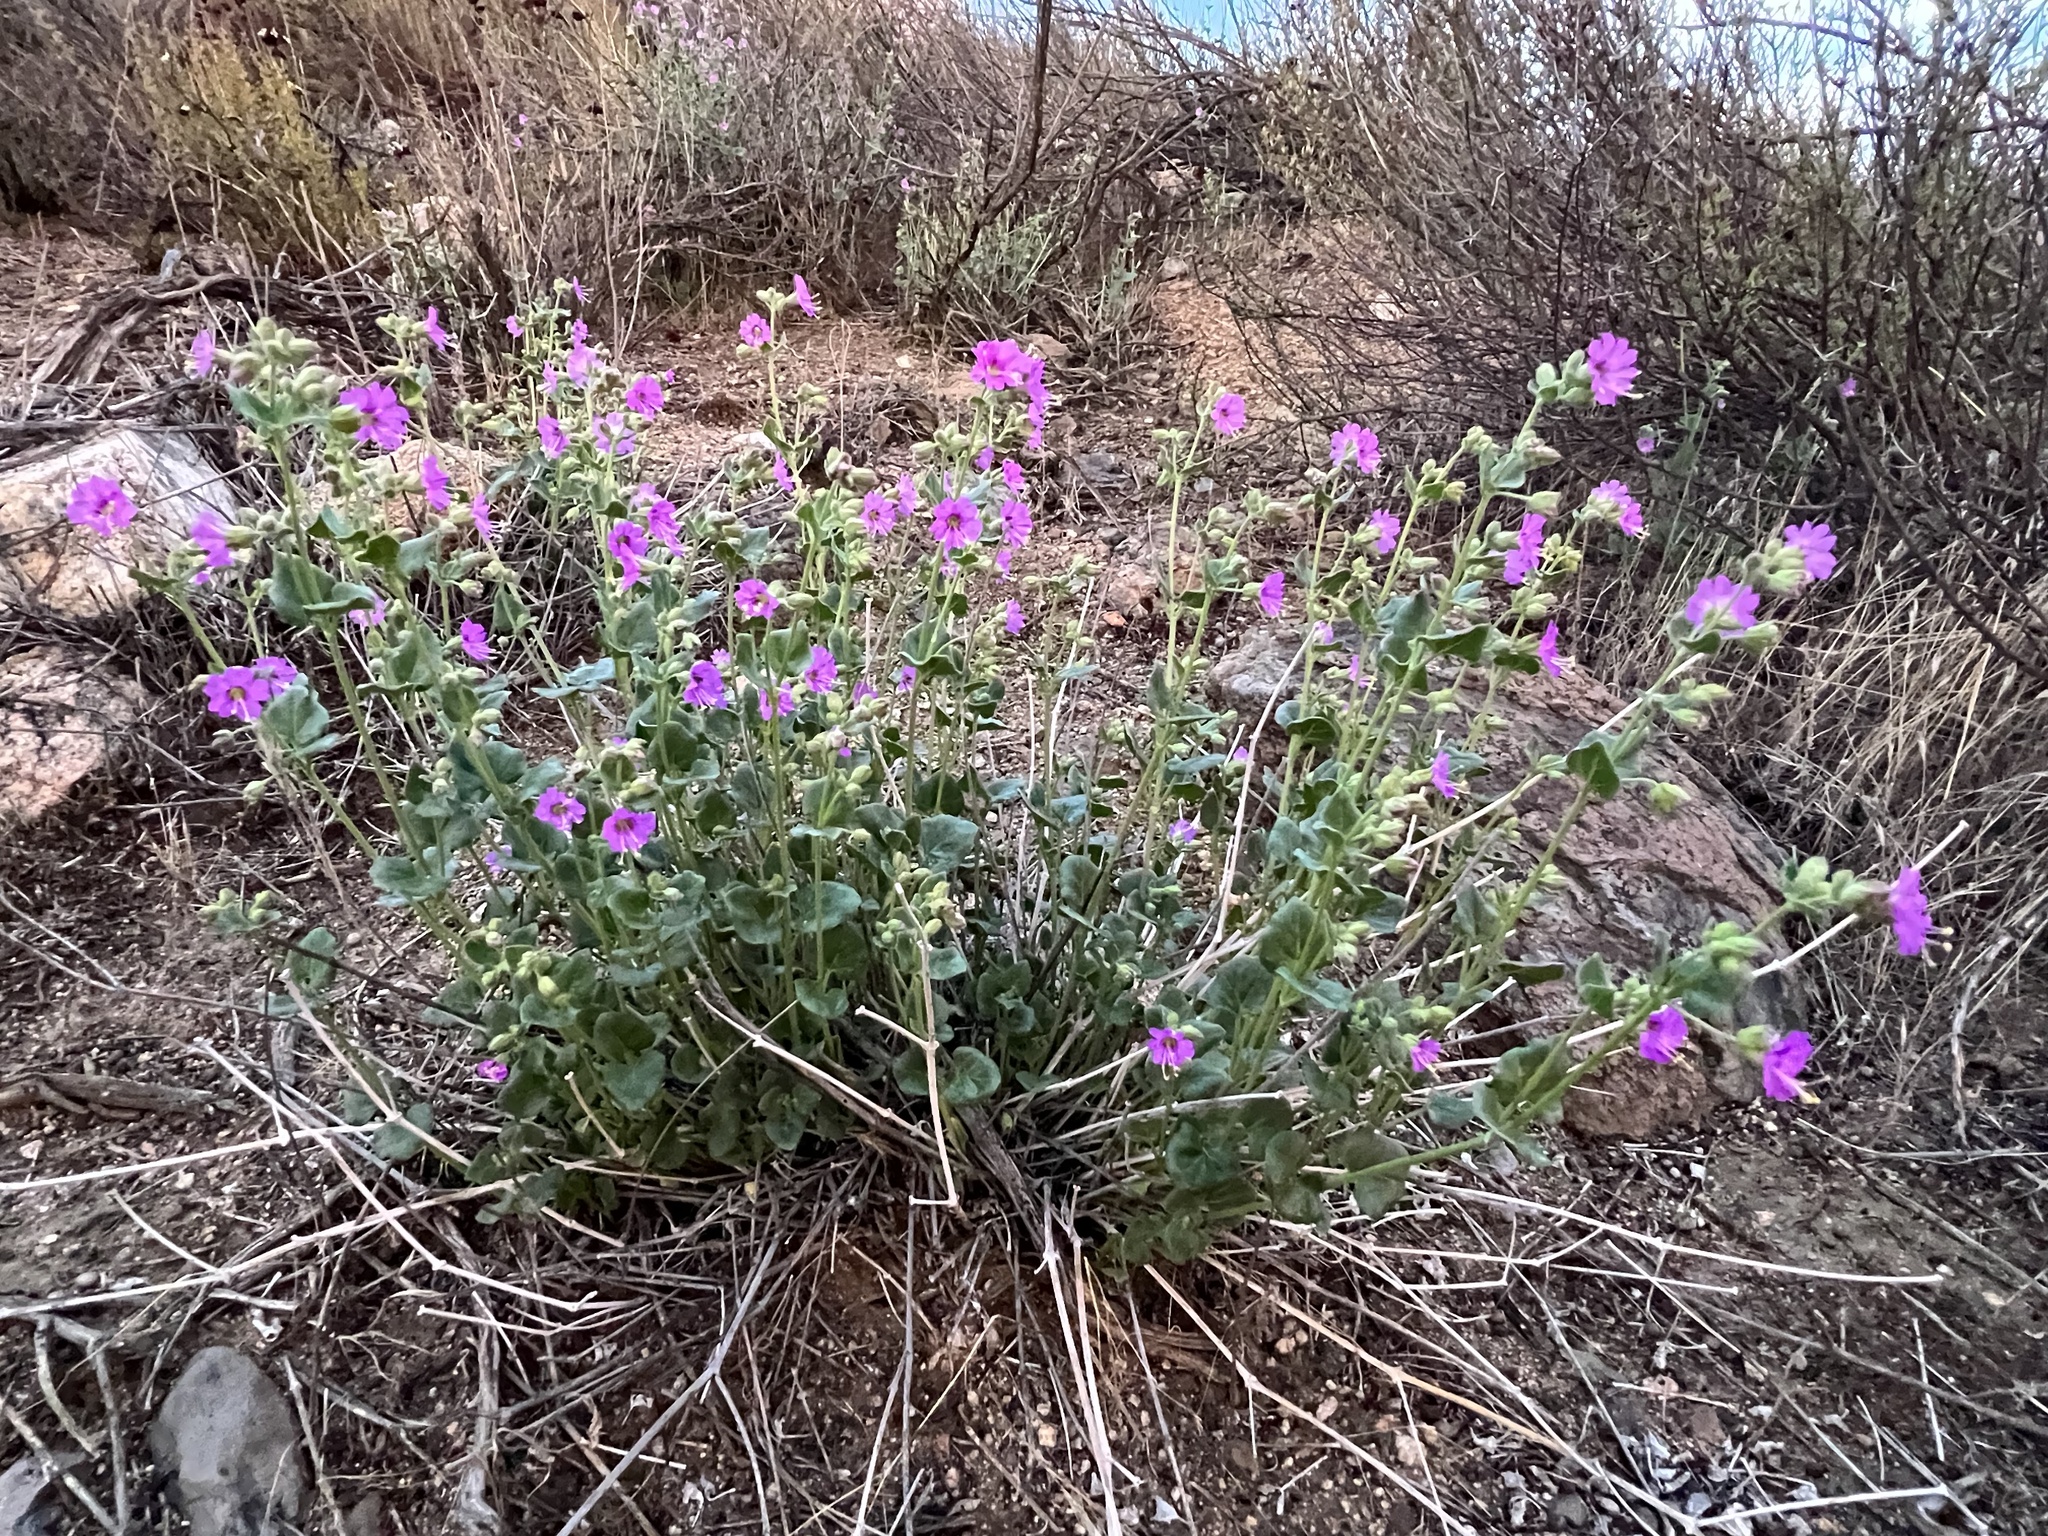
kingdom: Plantae
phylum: Tracheophyta
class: Magnoliopsida
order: Caryophyllales
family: Nyctaginaceae
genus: Mirabilis
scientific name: Mirabilis laevis
